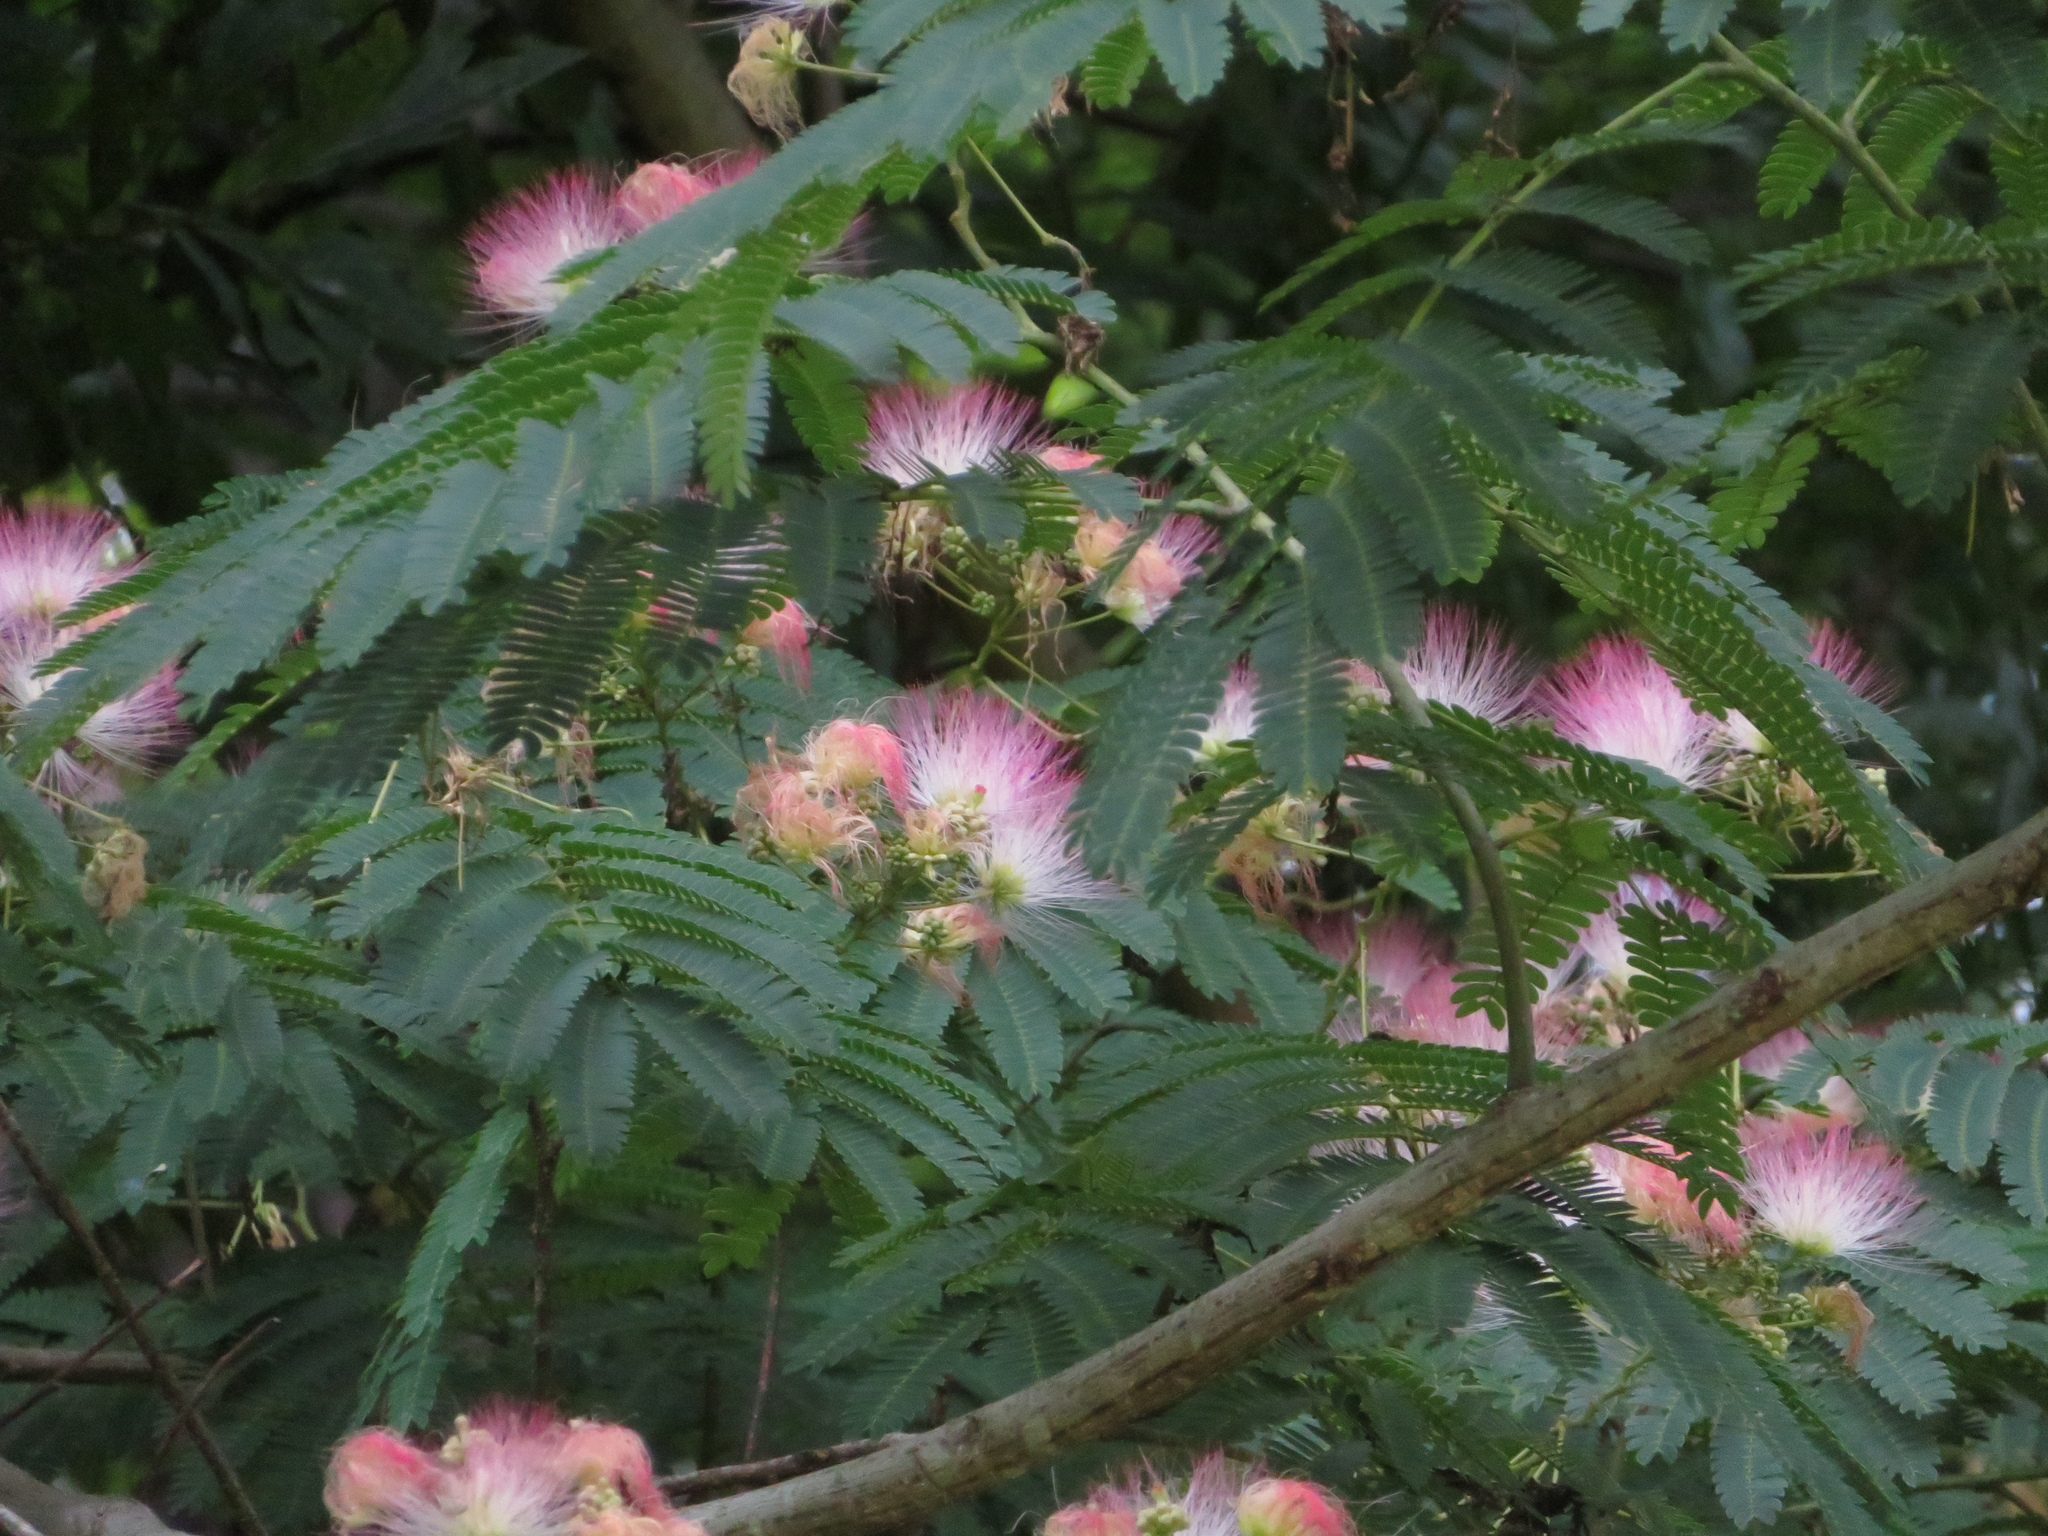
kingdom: Plantae
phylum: Tracheophyta
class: Magnoliopsida
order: Fabales
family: Fabaceae
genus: Albizia
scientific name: Albizia julibrissin
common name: Silktree
